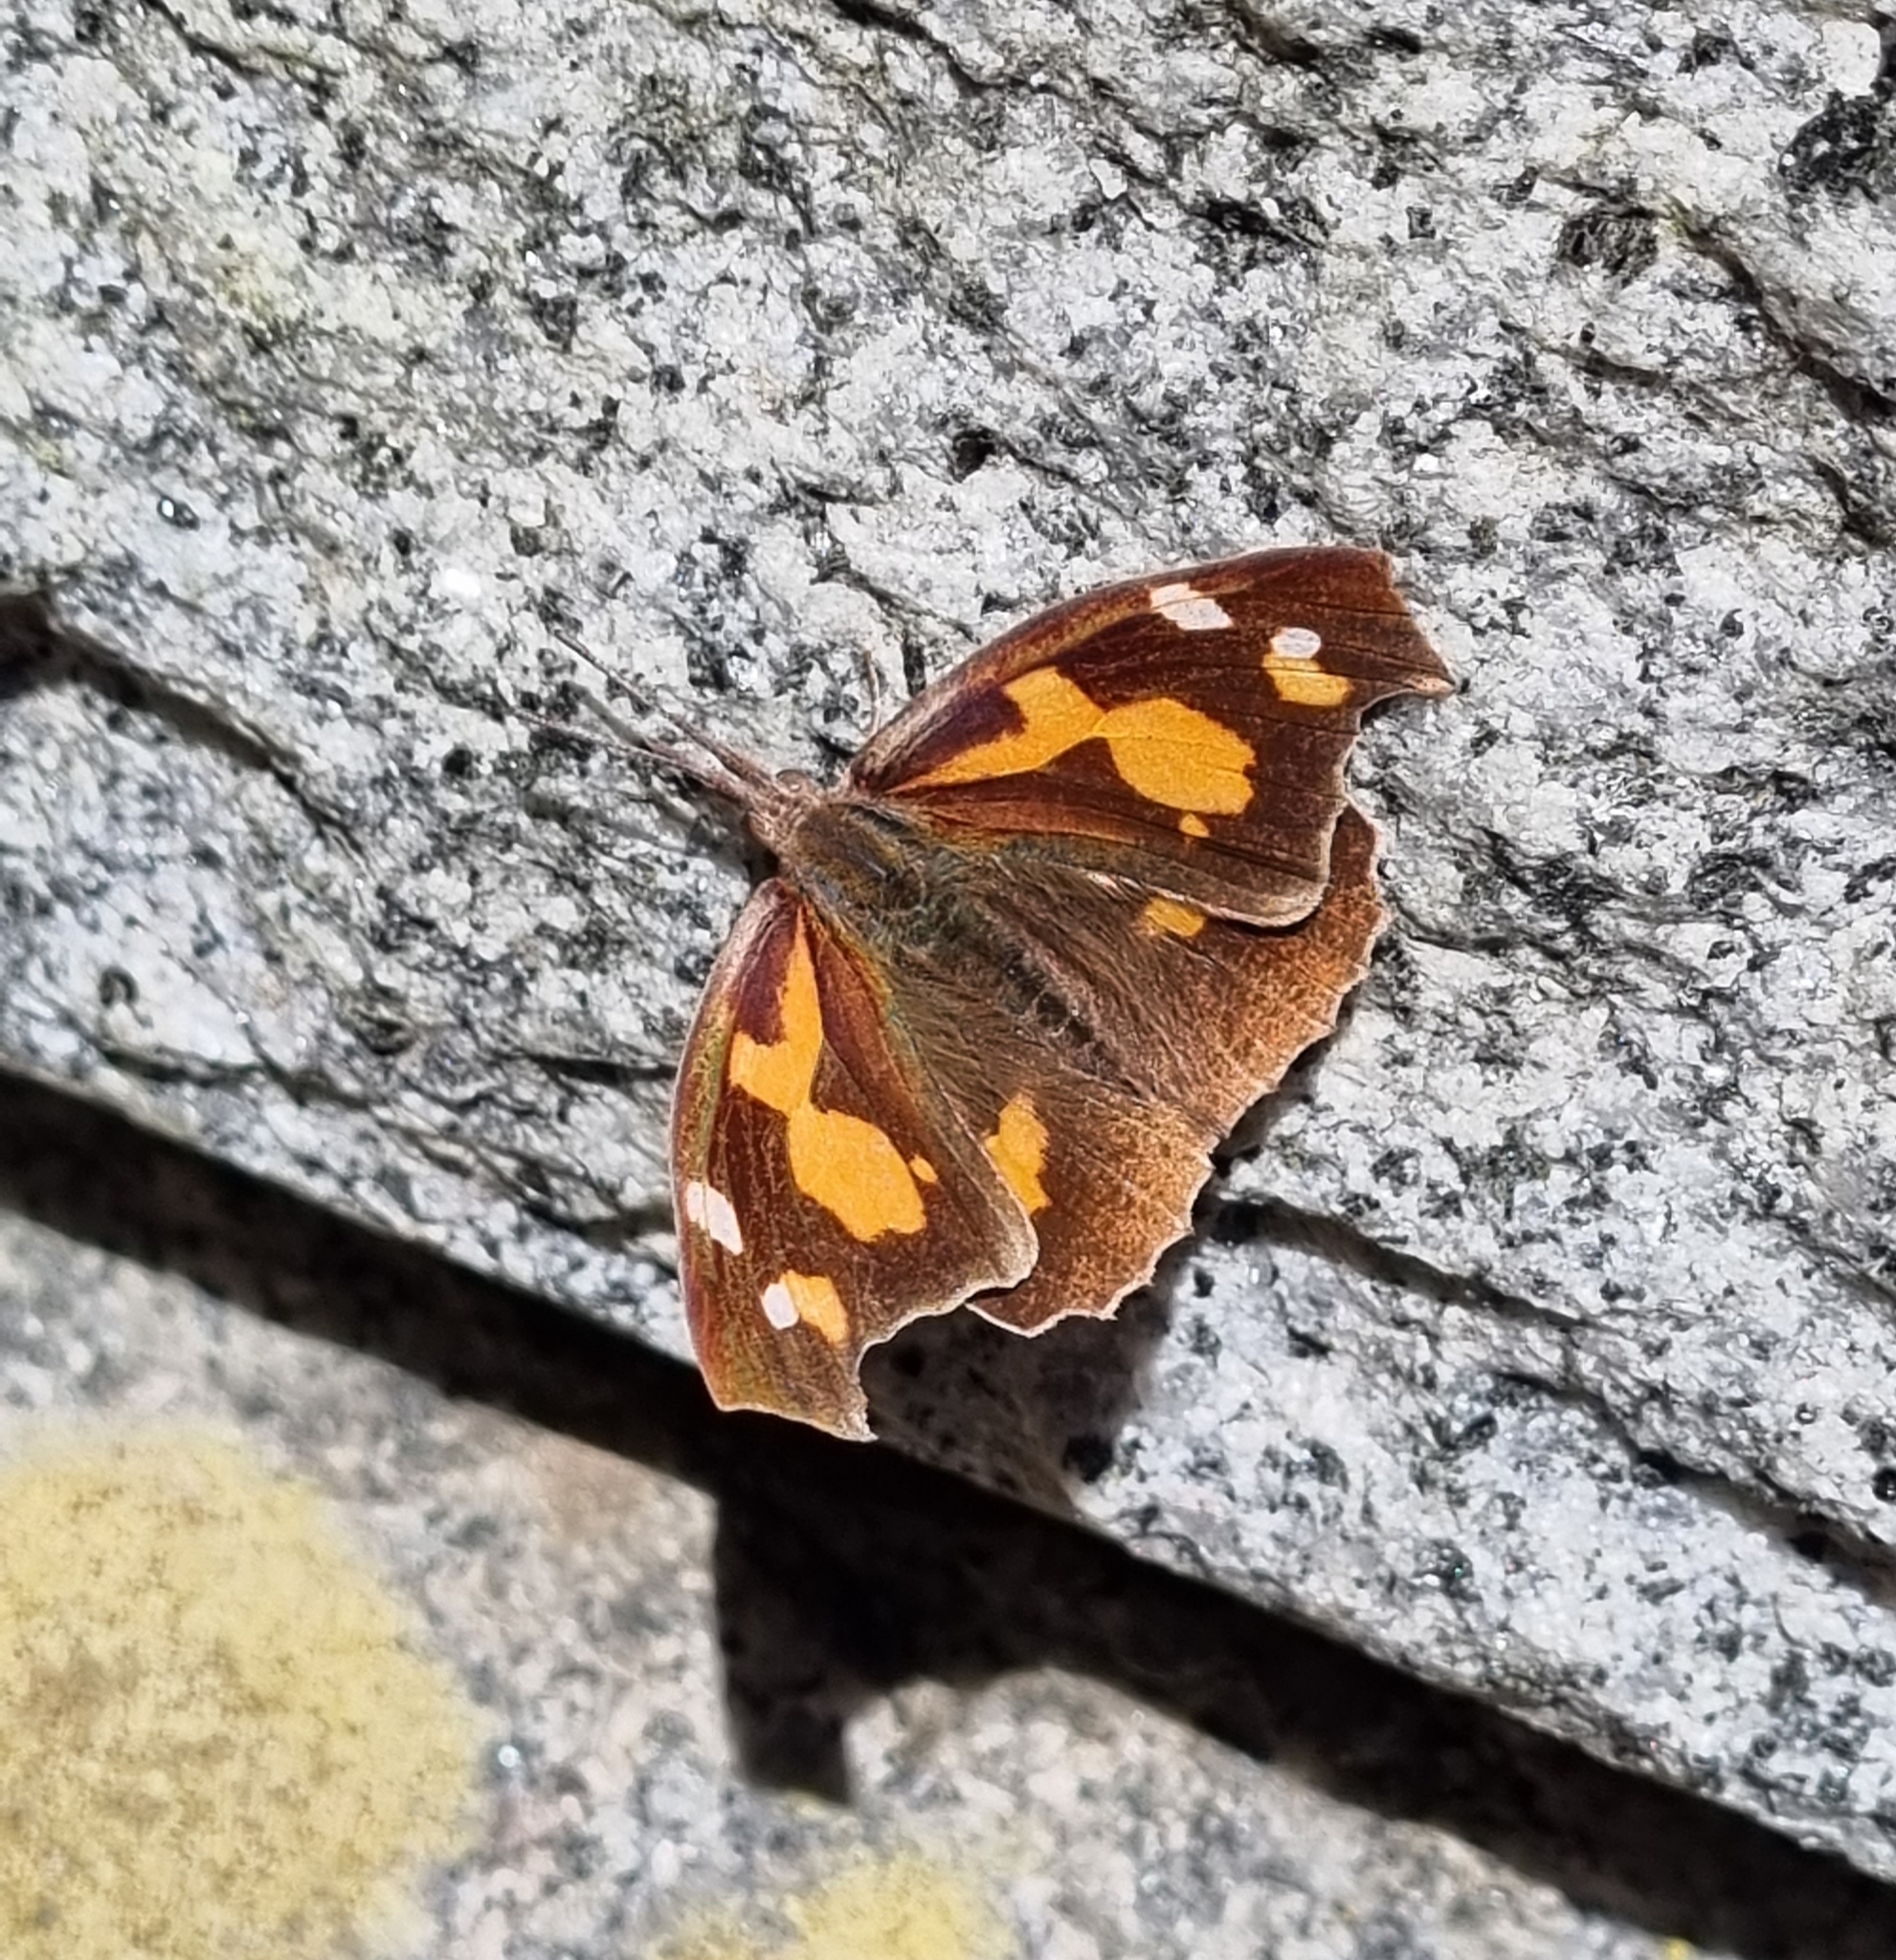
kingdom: Animalia
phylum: Arthropoda
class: Insecta
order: Lepidoptera
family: Nymphalidae
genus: Libythea
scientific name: Libythea lepita
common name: Common beak
